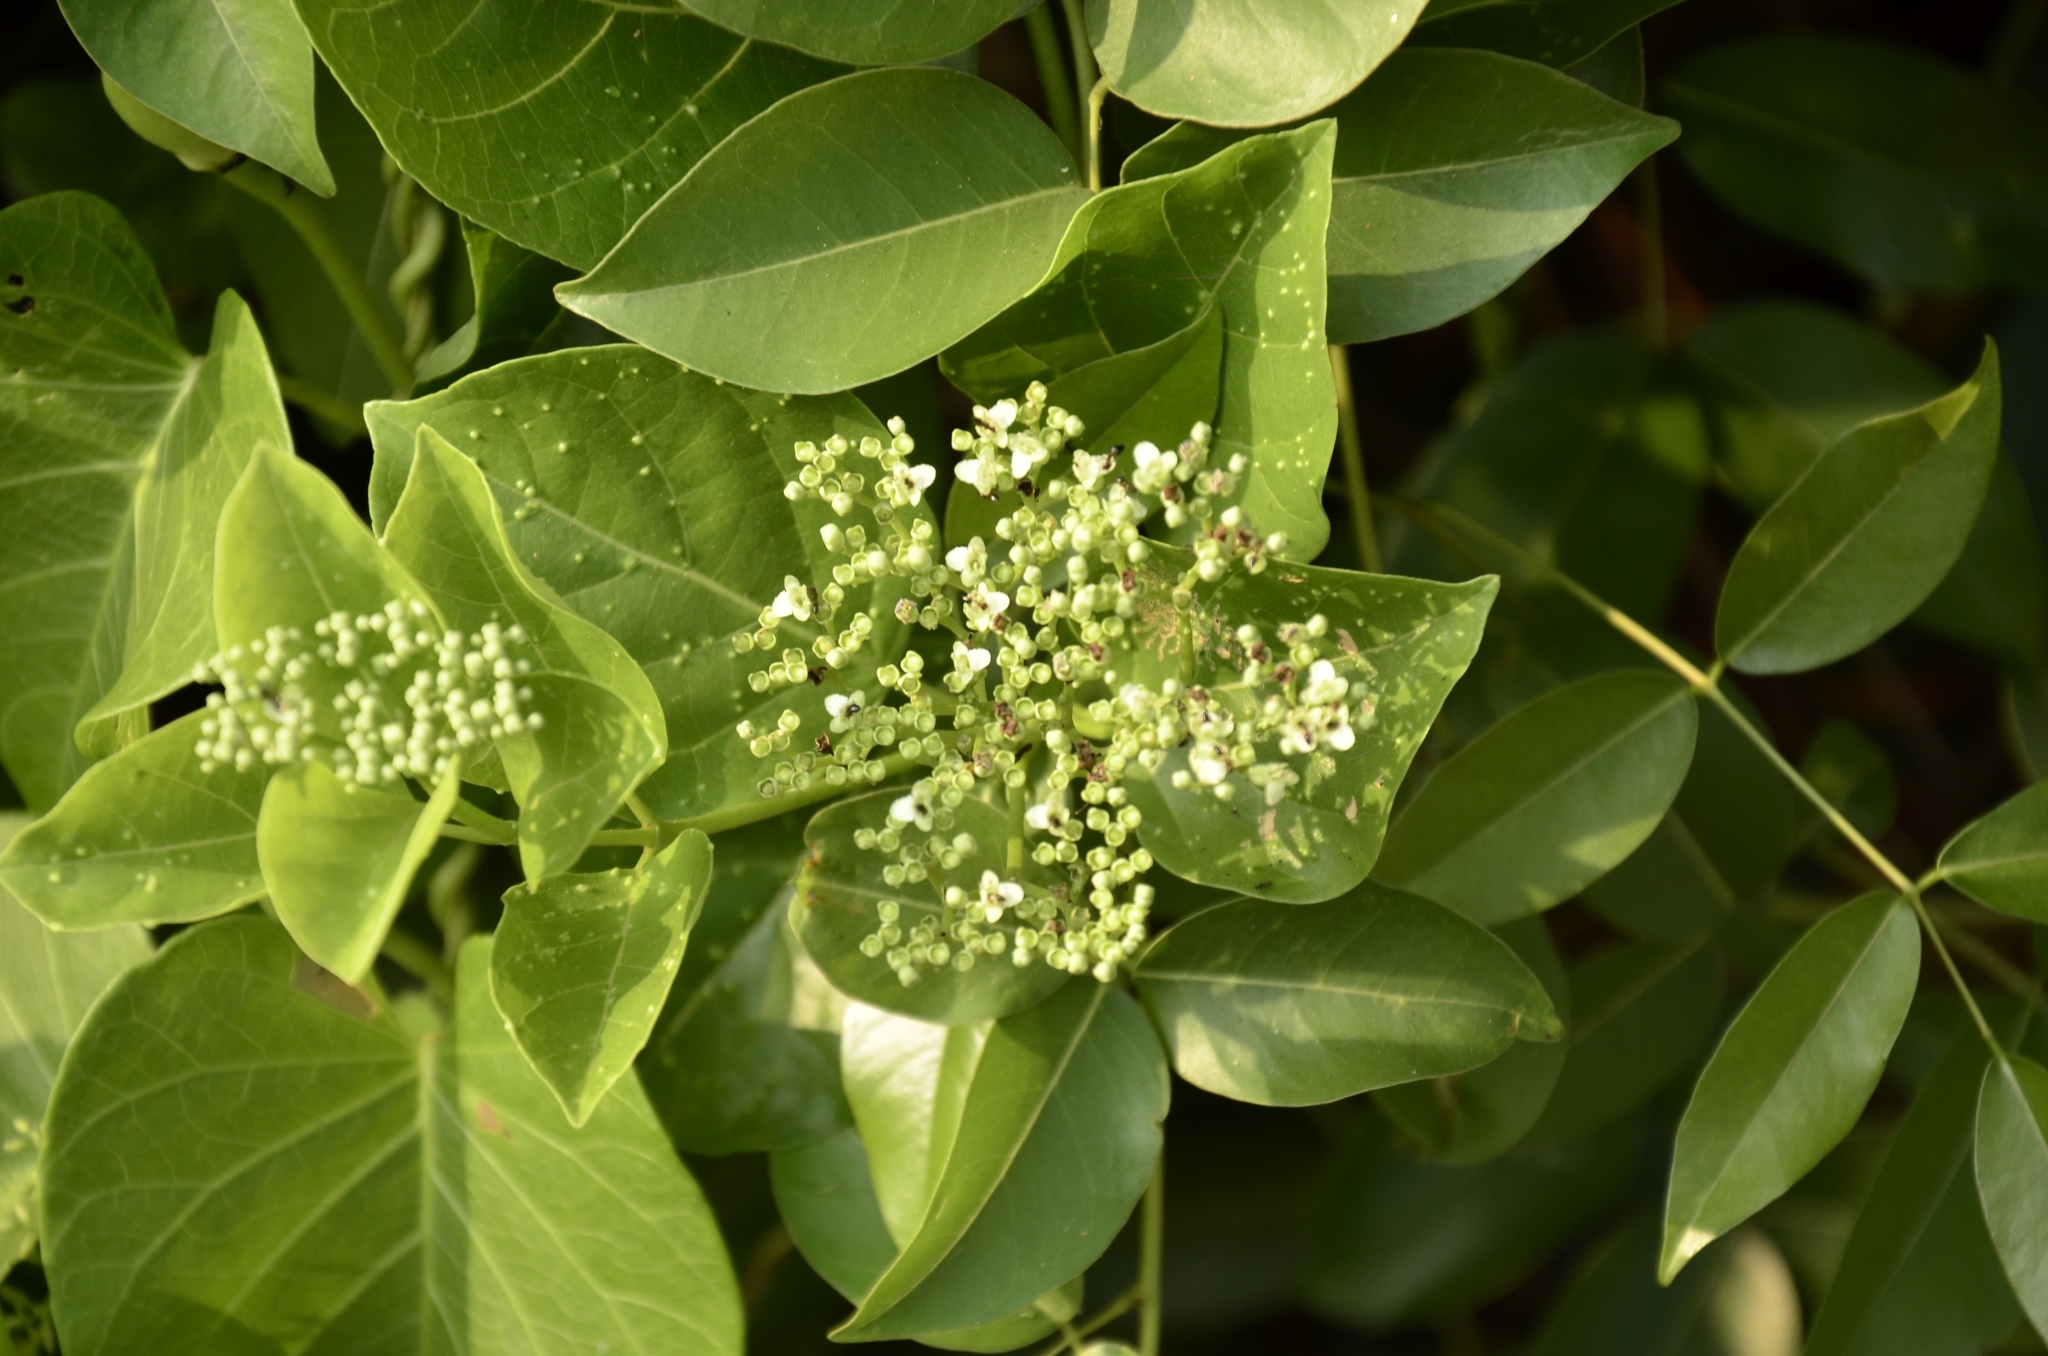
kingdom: Plantae
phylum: Tracheophyta
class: Magnoliopsida
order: Lamiales
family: Lamiaceae
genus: Premna
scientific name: Premna serratifolia
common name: Bastard guelder
